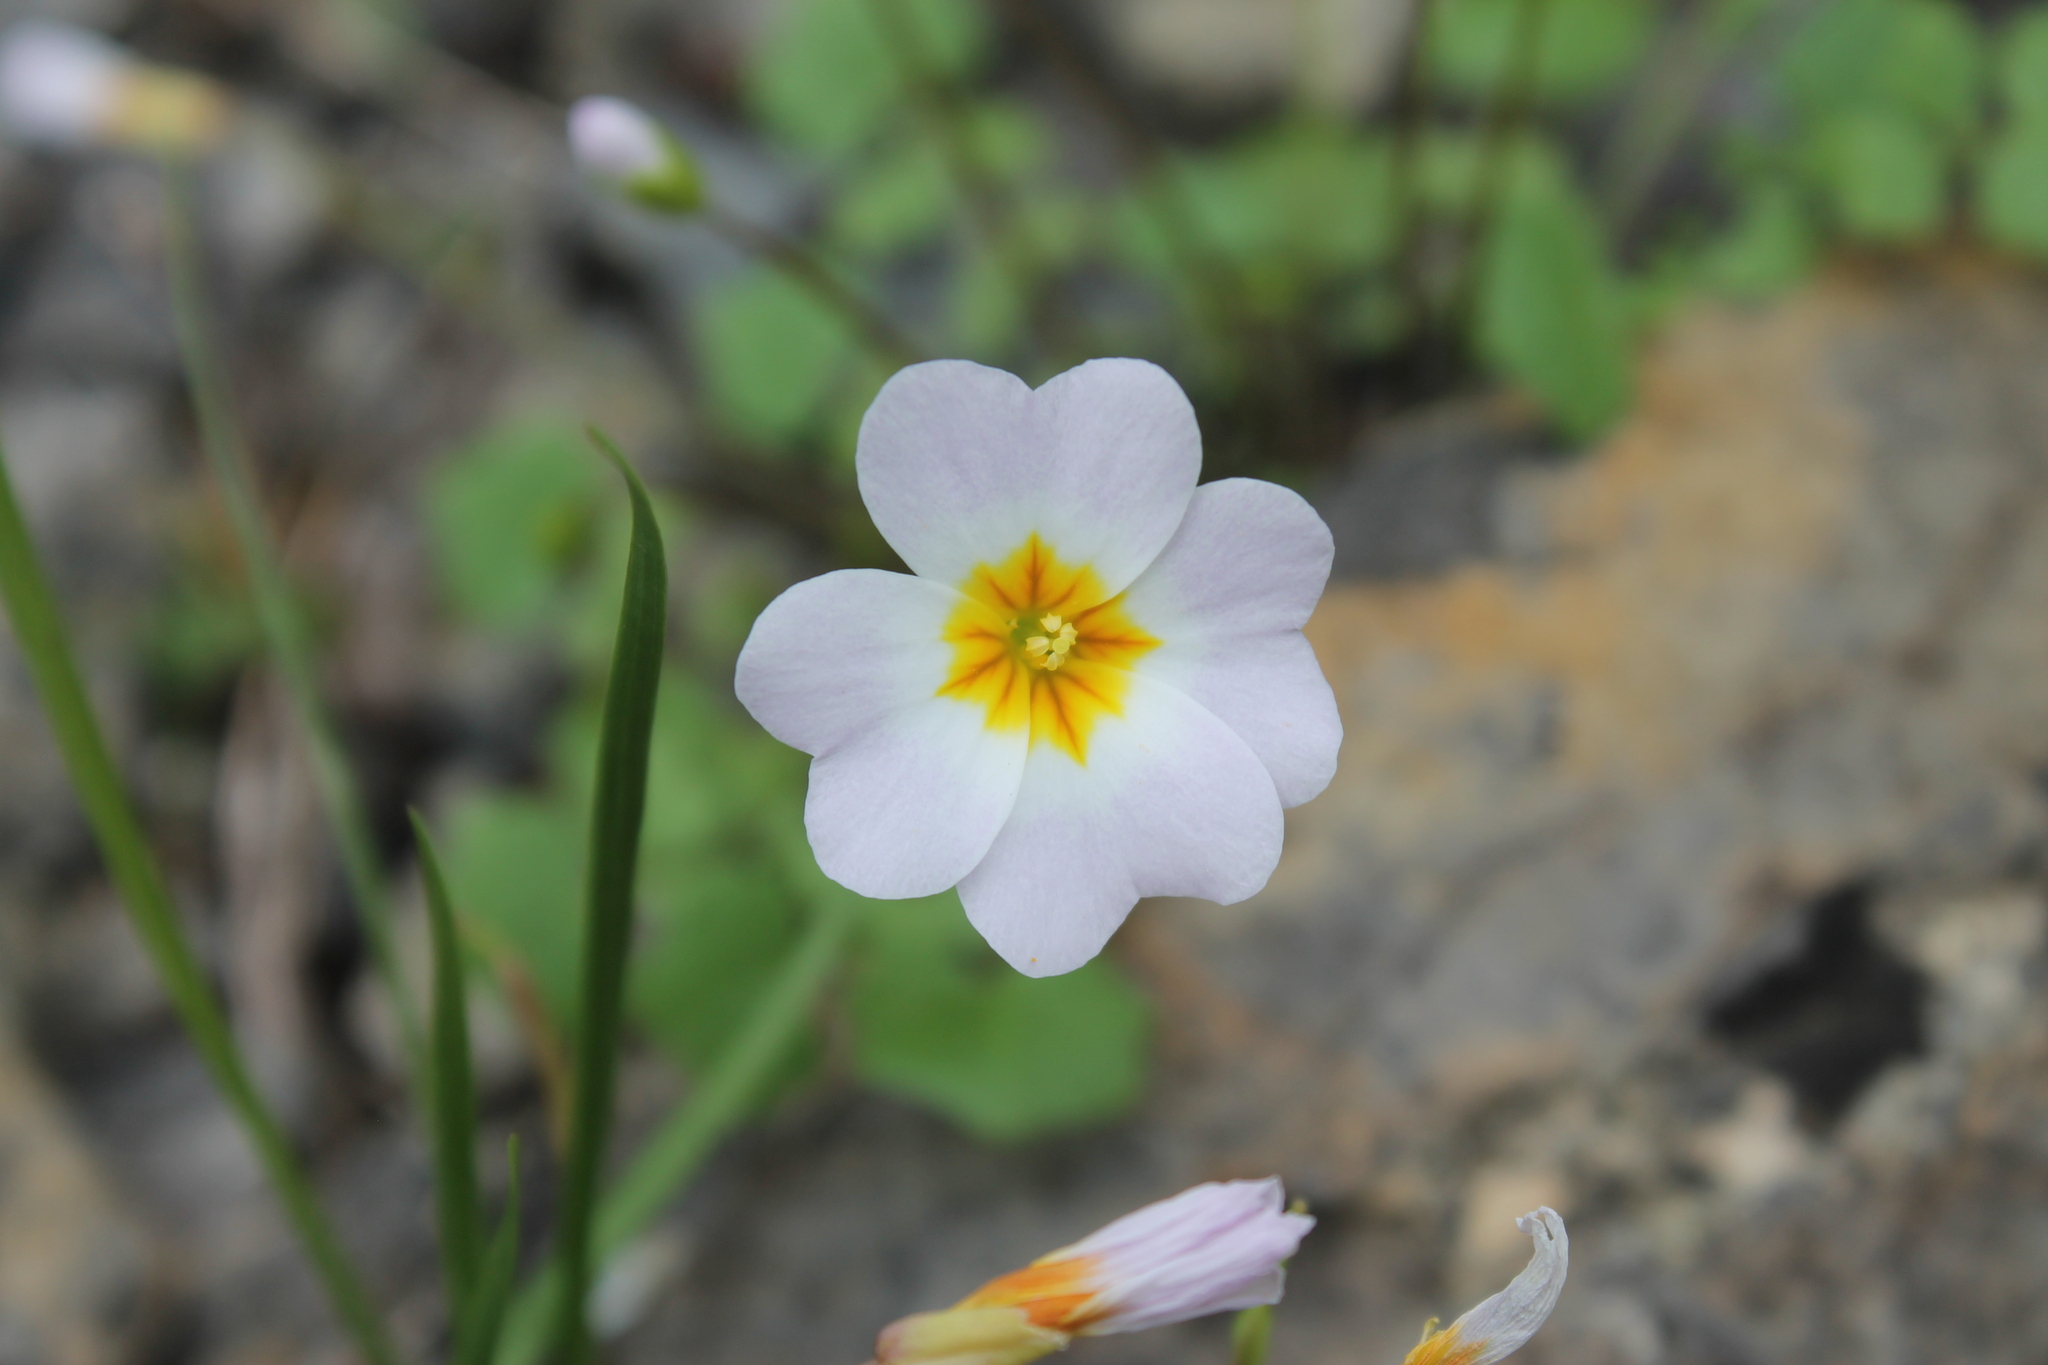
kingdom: Plantae
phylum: Tracheophyta
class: Magnoliopsida
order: Brassicales
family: Brassicaceae
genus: Leavenworthia
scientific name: Leavenworthia stylosa
